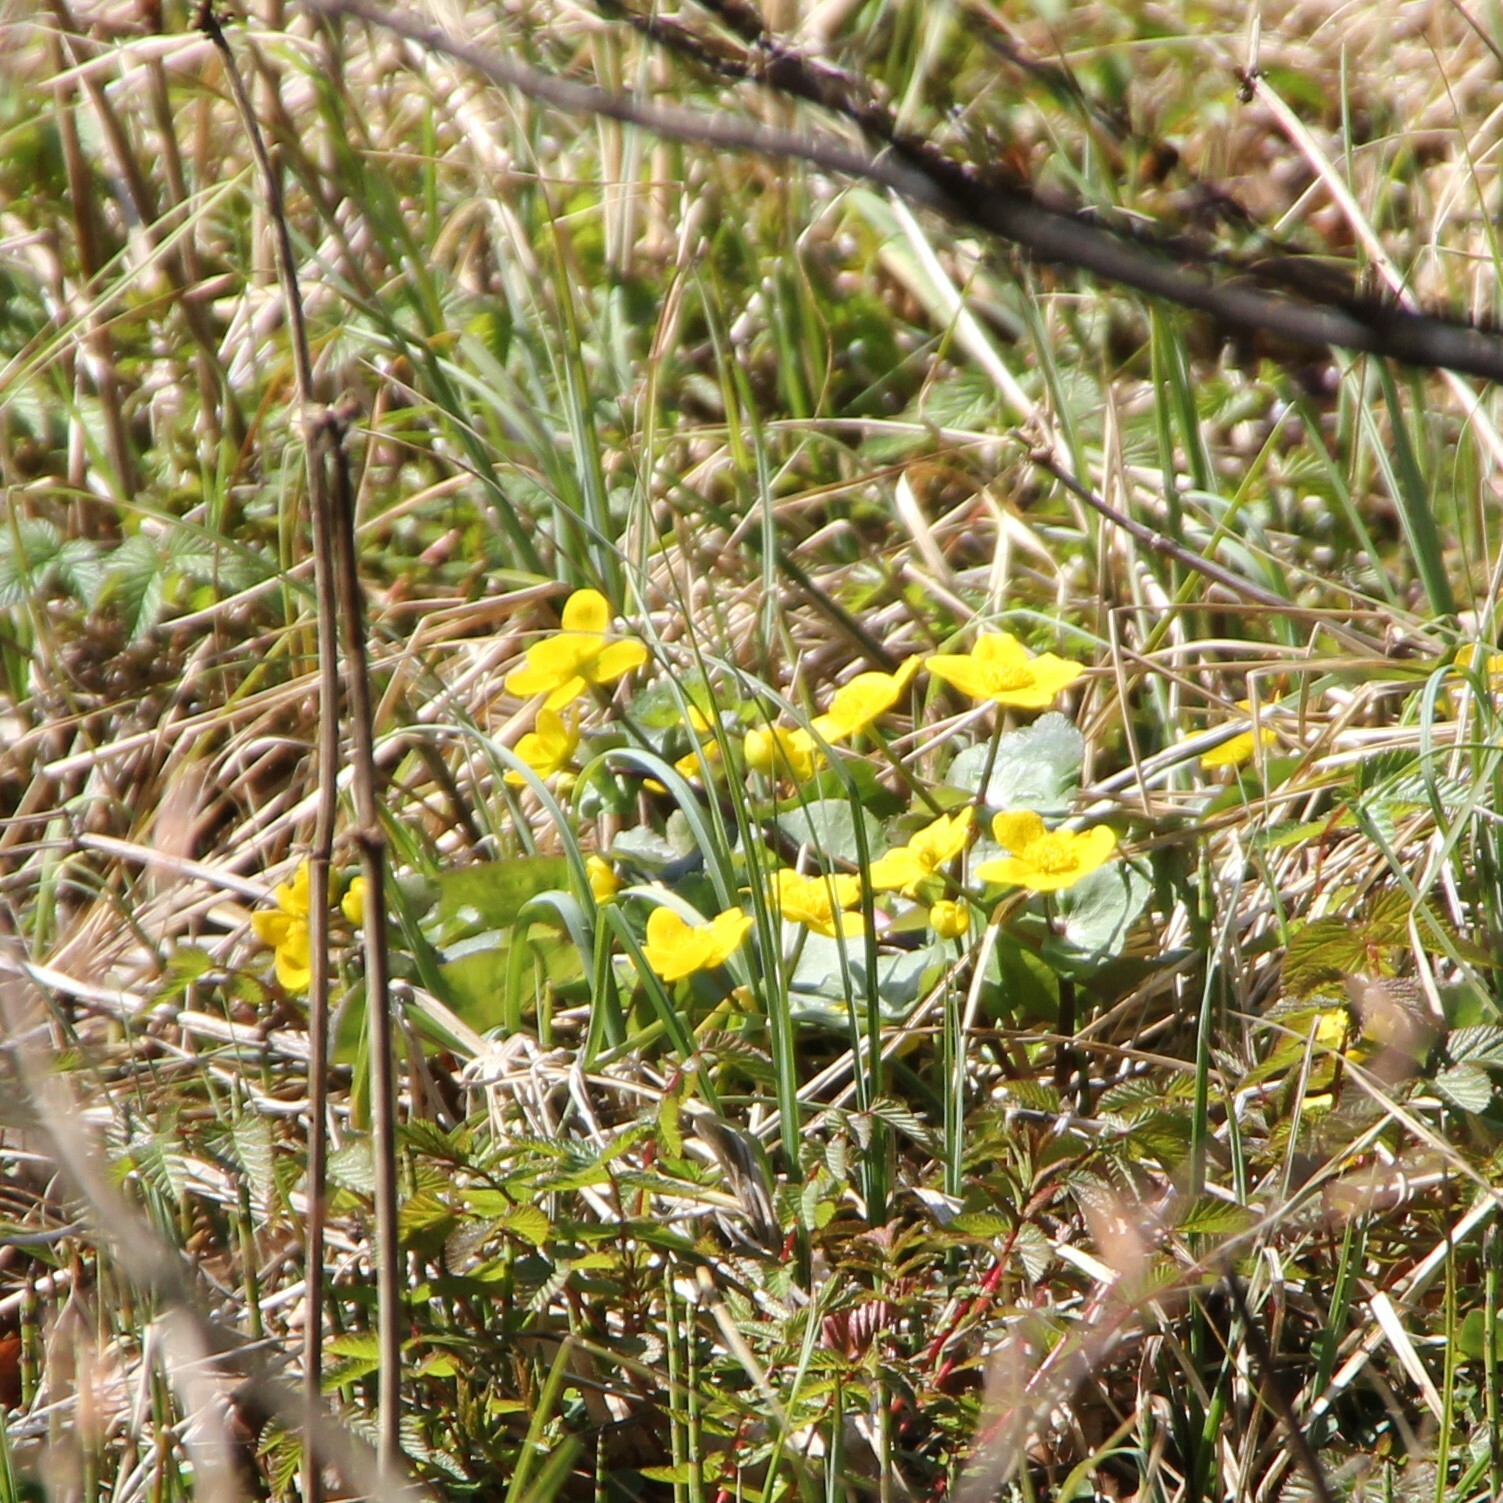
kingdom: Plantae
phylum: Tracheophyta
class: Magnoliopsida
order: Ranunculales
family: Ranunculaceae
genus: Caltha
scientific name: Caltha palustris
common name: Marsh marigold
